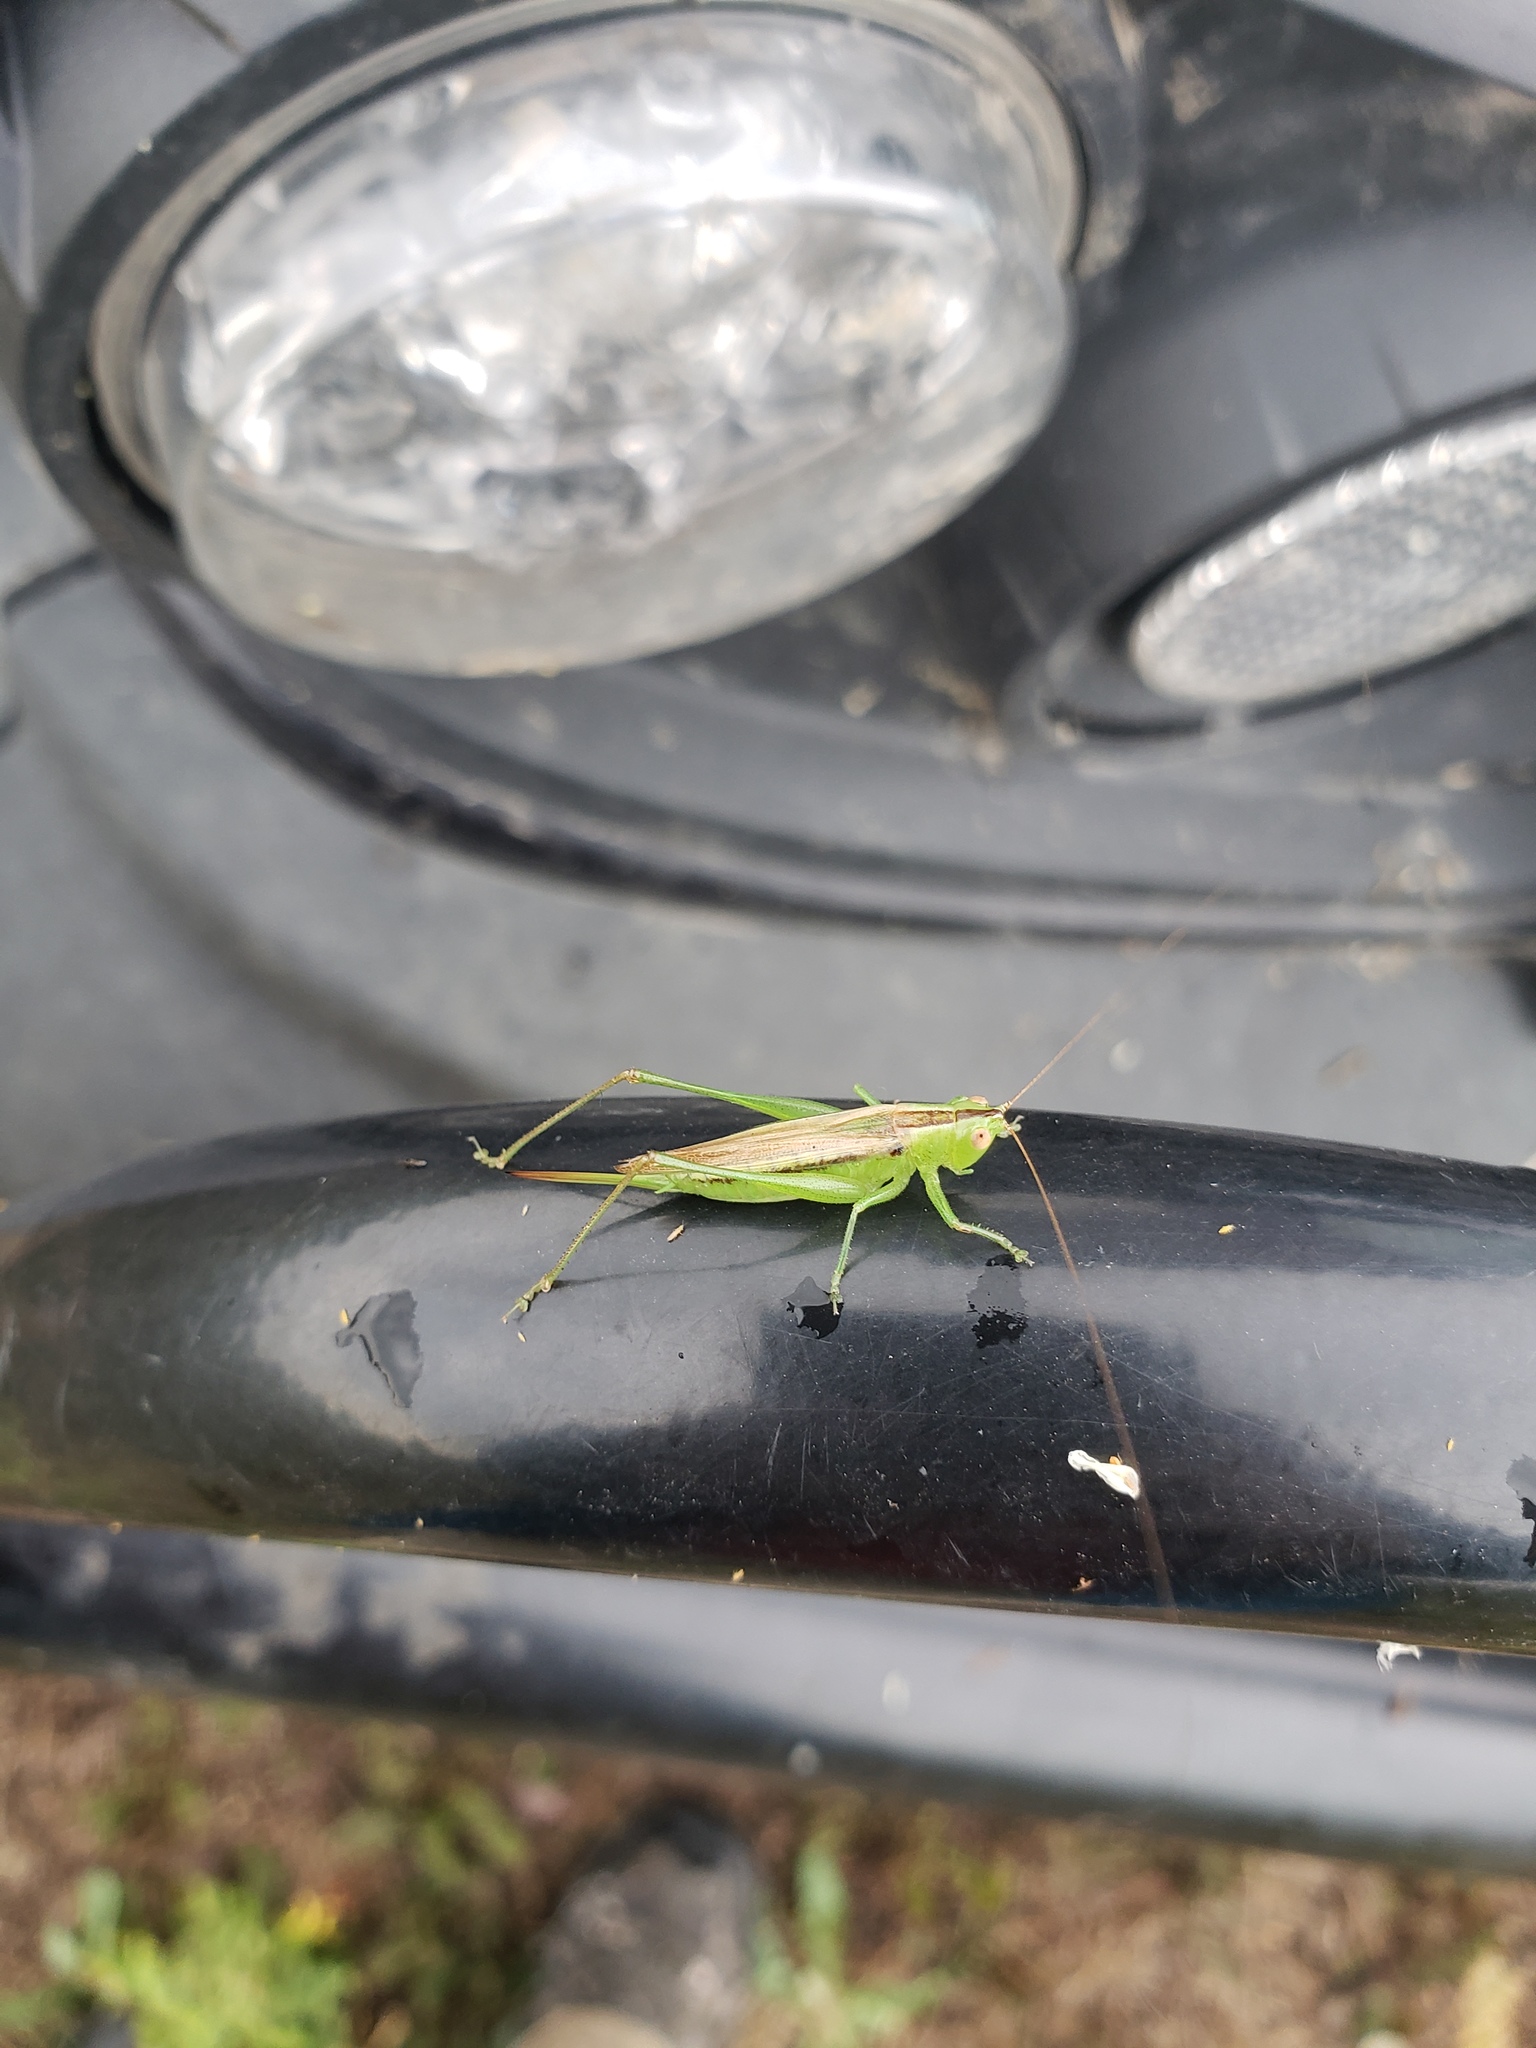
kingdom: Animalia
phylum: Arthropoda
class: Insecta
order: Orthoptera
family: Tettigoniidae
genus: Conocephalus
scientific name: Conocephalus fasciatus
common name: Slender meadow katydid
